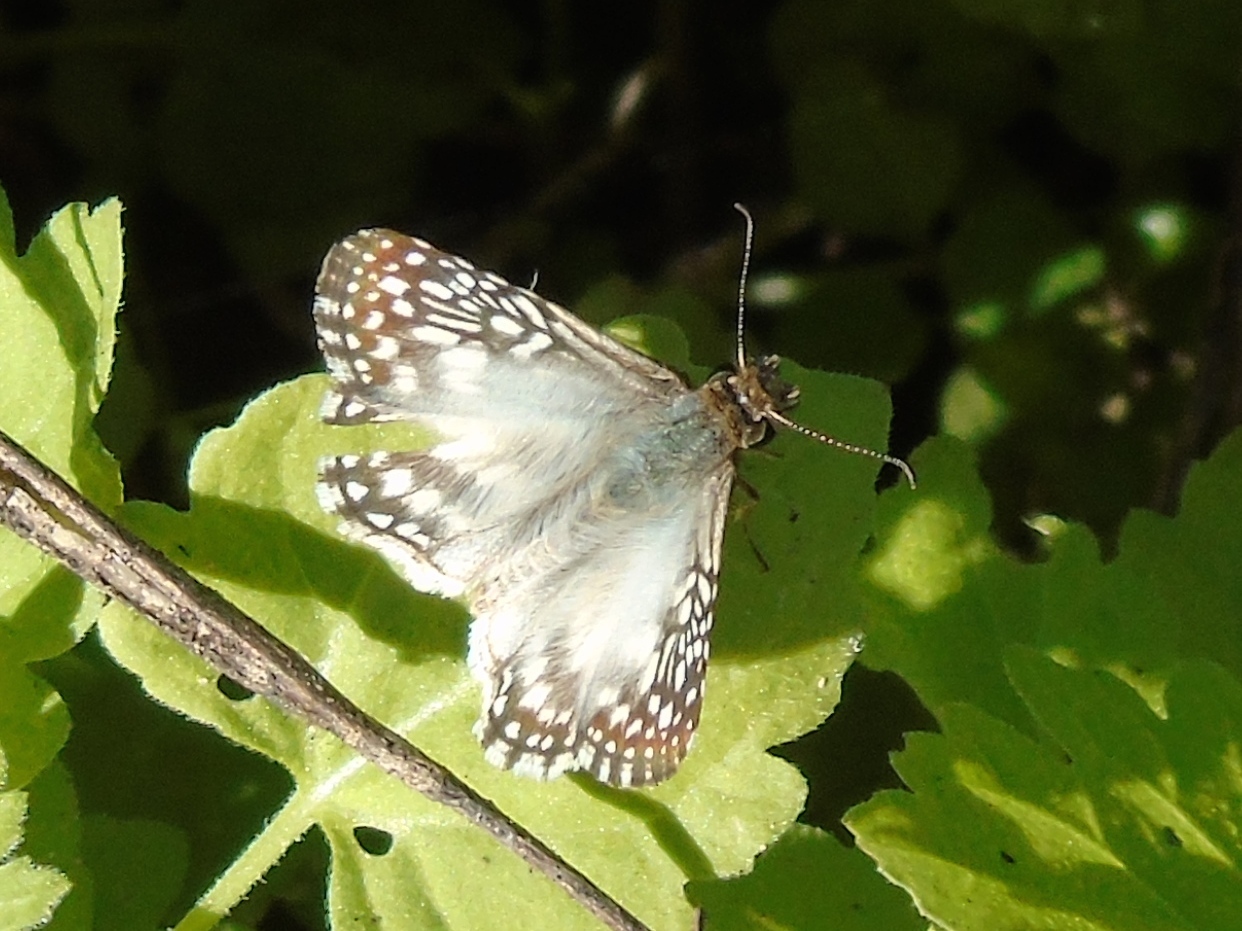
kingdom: Animalia
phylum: Arthropoda
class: Insecta
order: Lepidoptera
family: Hesperiidae
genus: Burnsius
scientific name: Burnsius
